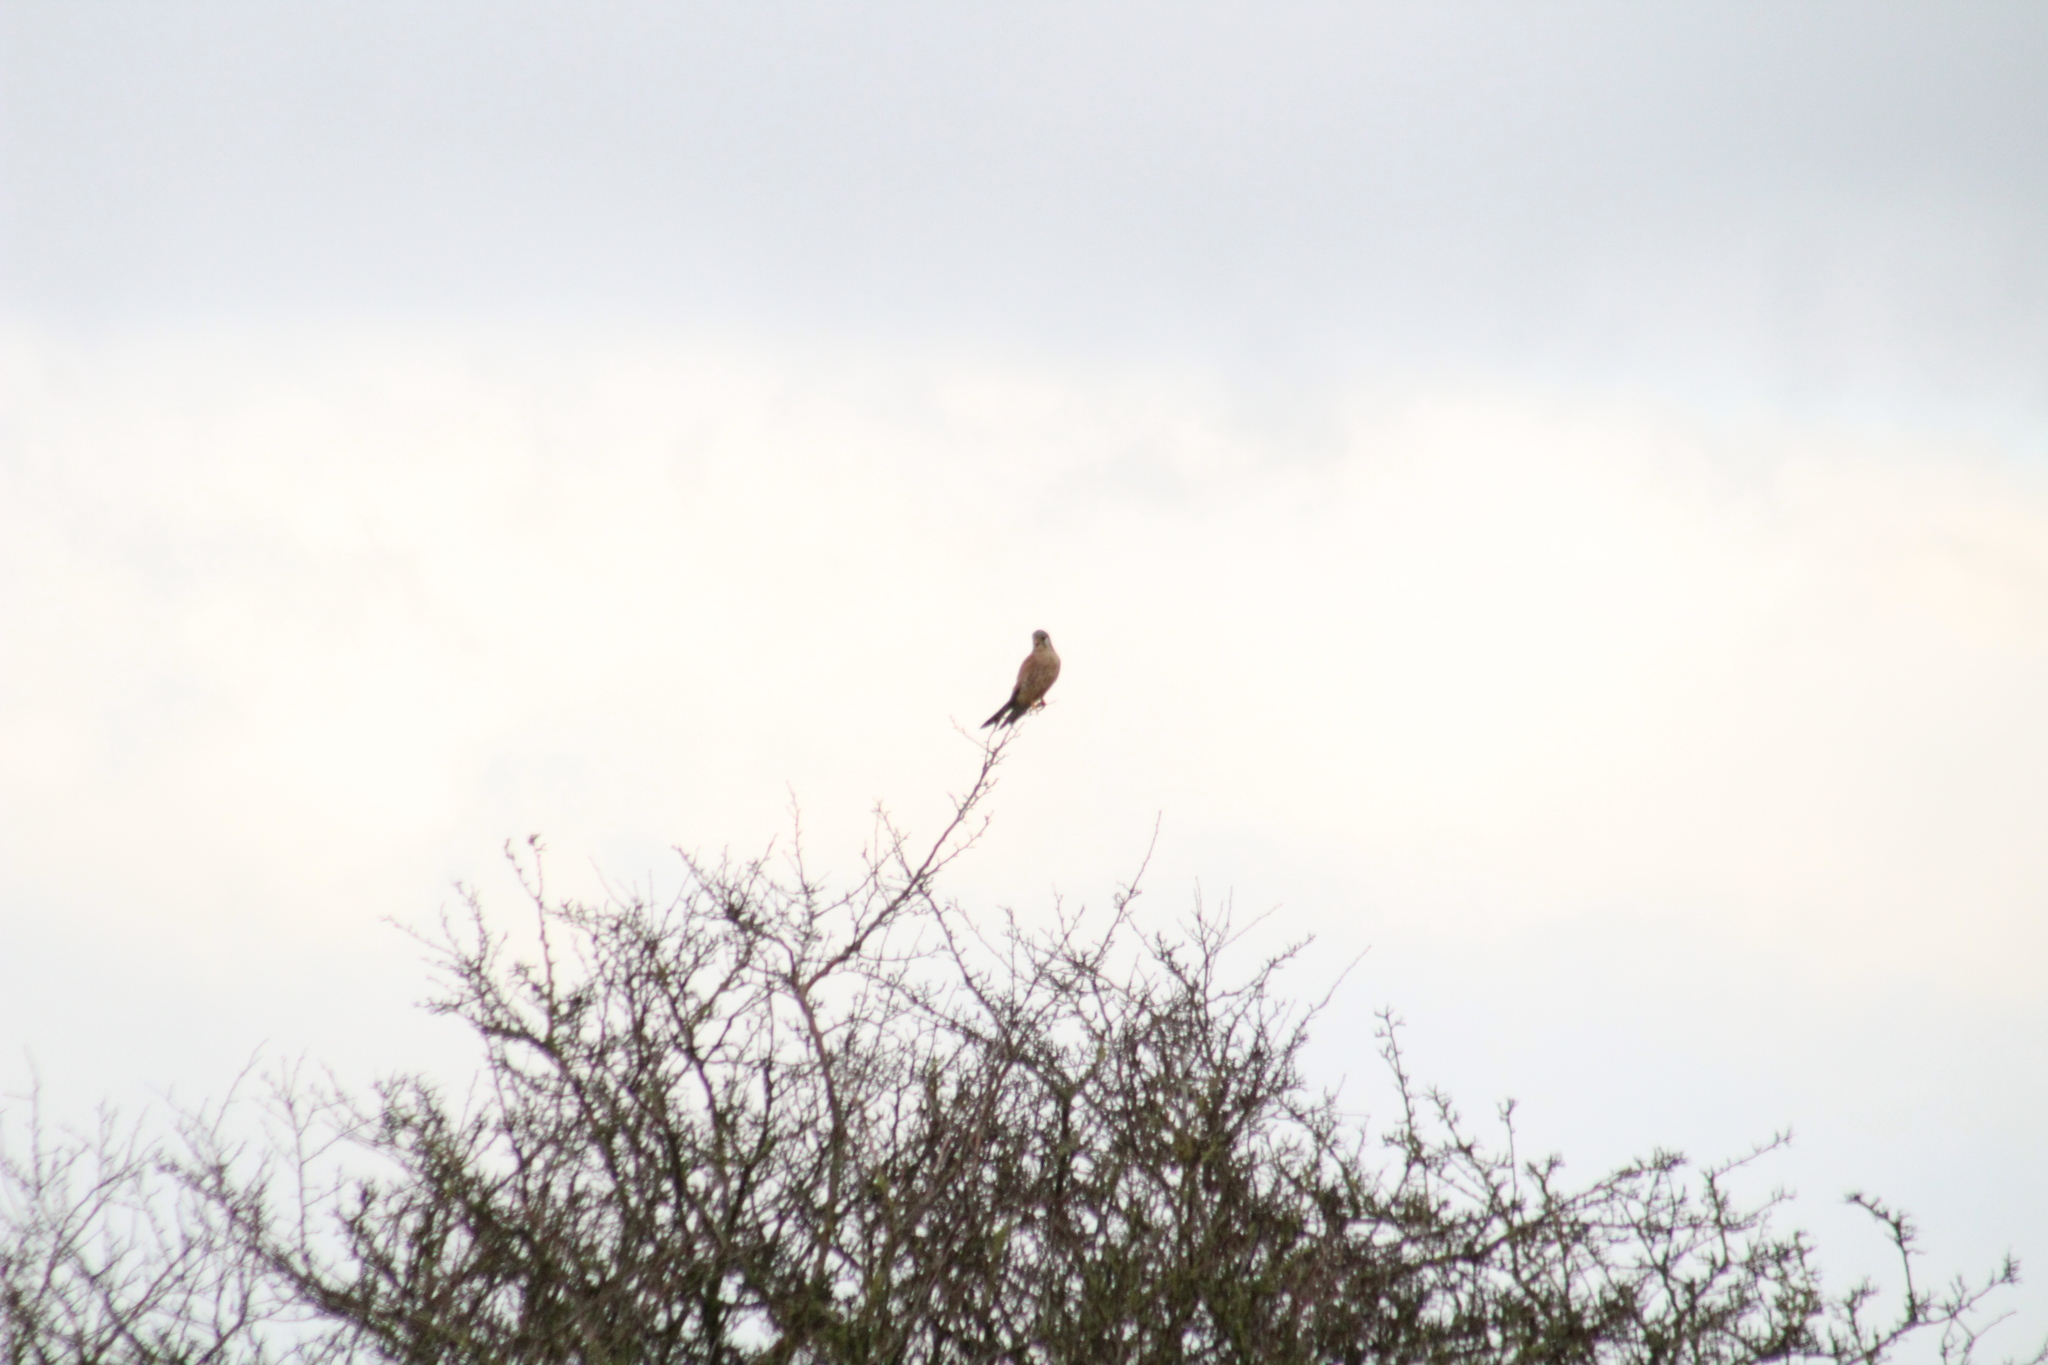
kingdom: Animalia
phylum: Chordata
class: Aves
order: Falconiformes
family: Falconidae
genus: Falco
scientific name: Falco tinnunculus
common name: Common kestrel
